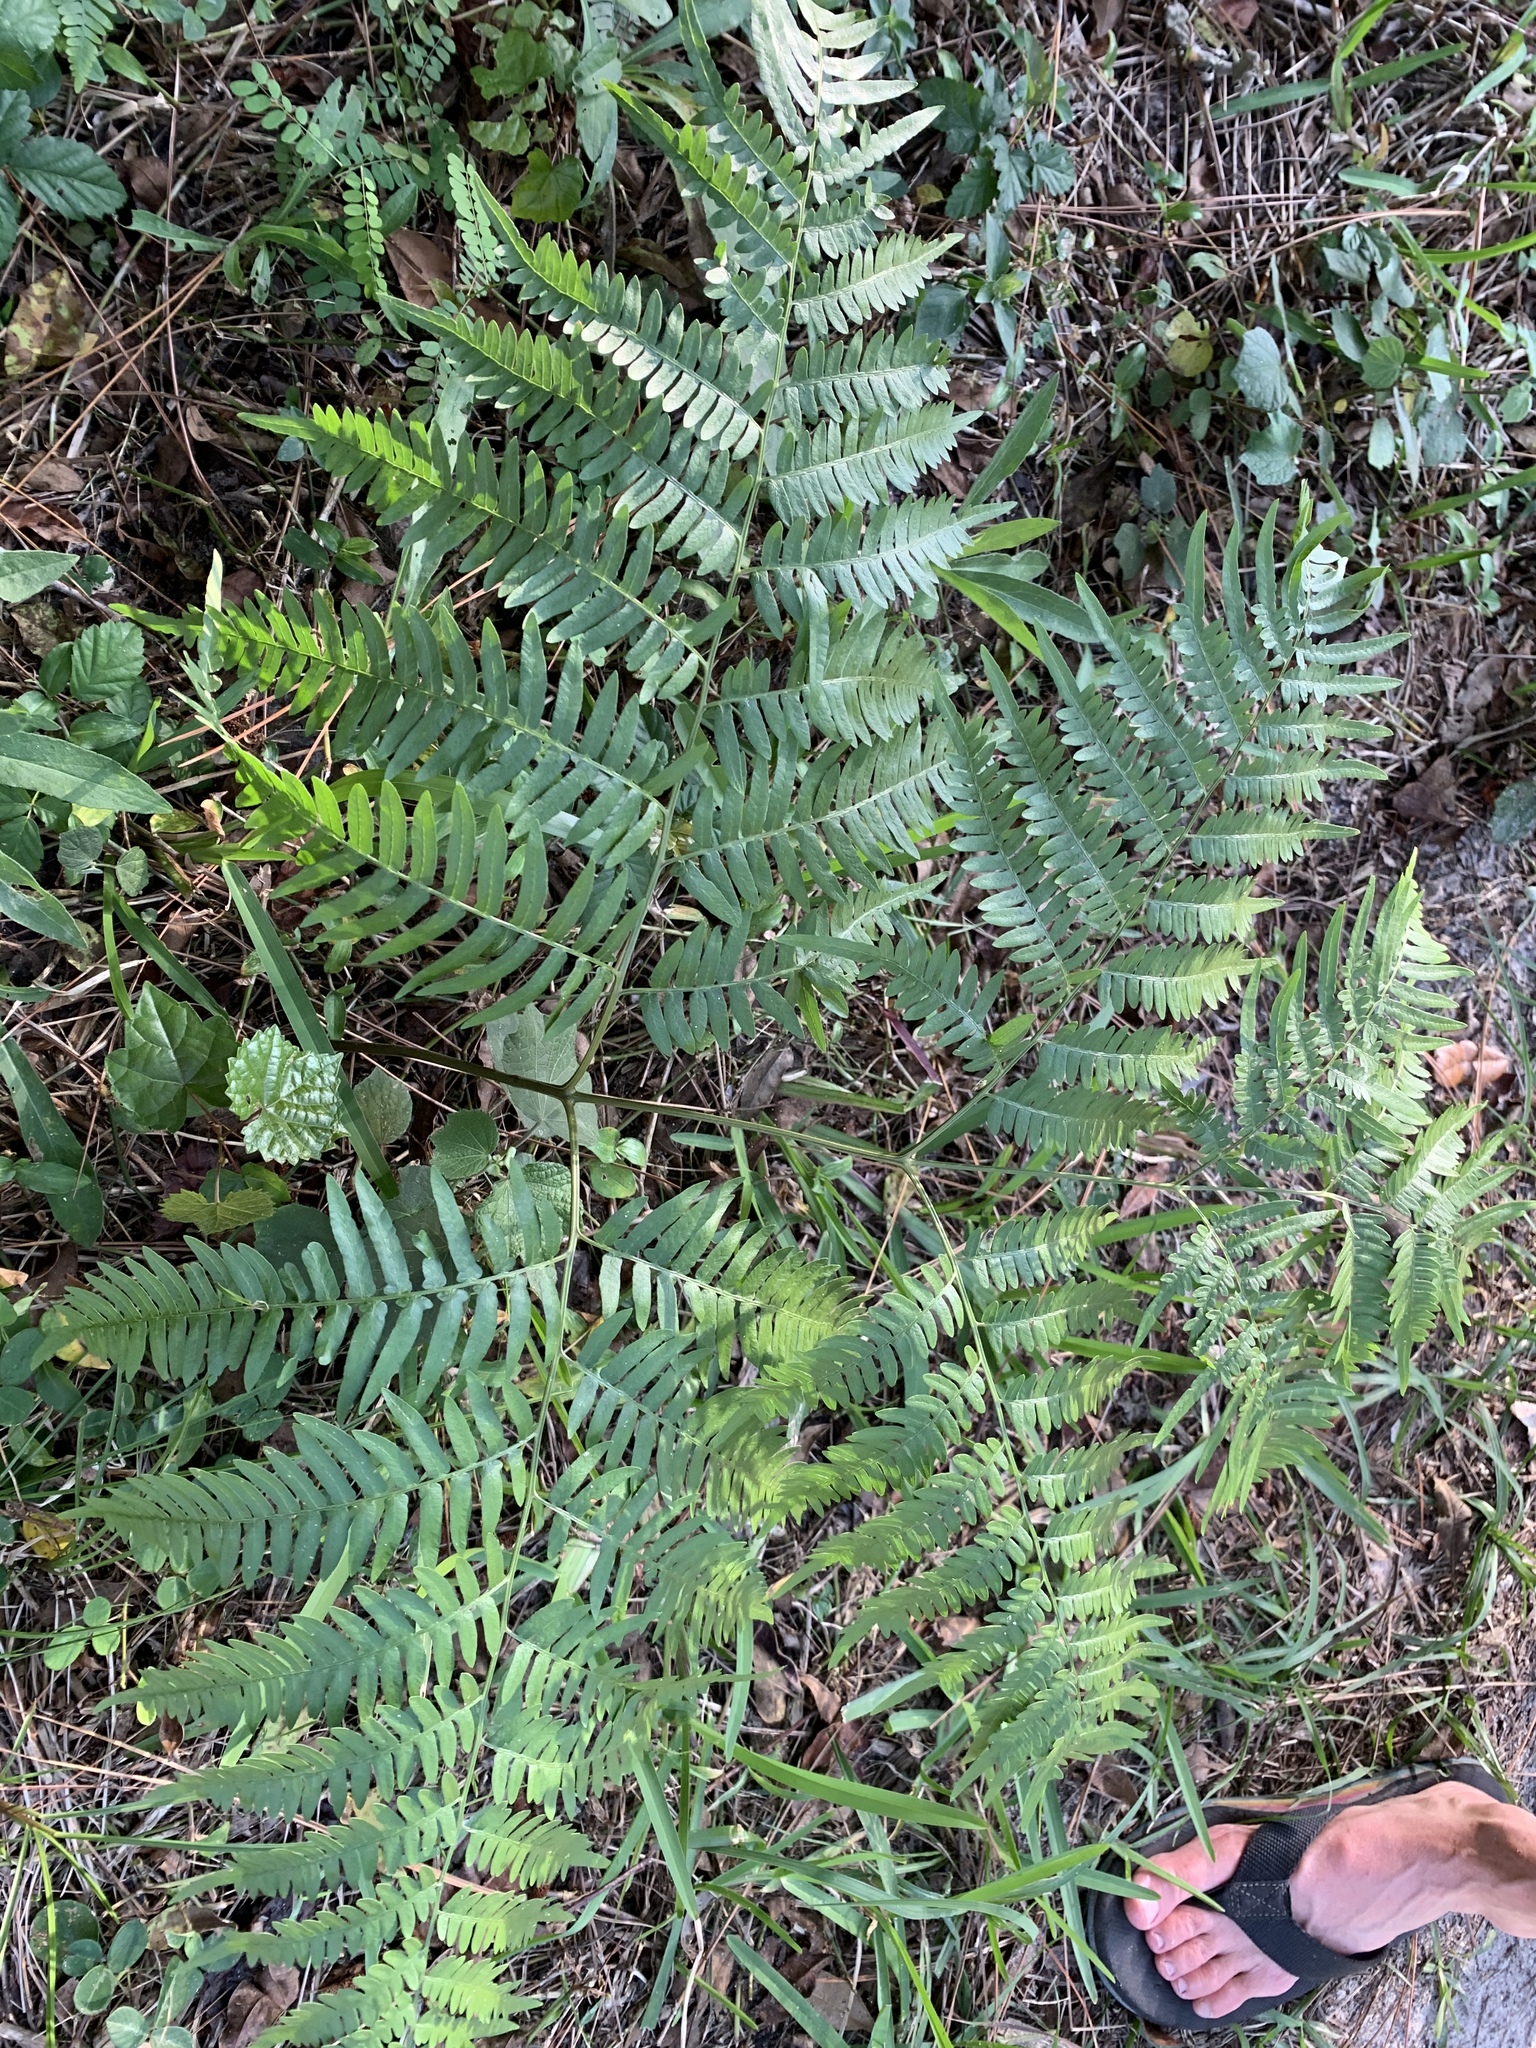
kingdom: Plantae
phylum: Tracheophyta
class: Polypodiopsida
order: Polypodiales
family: Dennstaedtiaceae
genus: Pteridium
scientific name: Pteridium aquilinum
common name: Bracken
